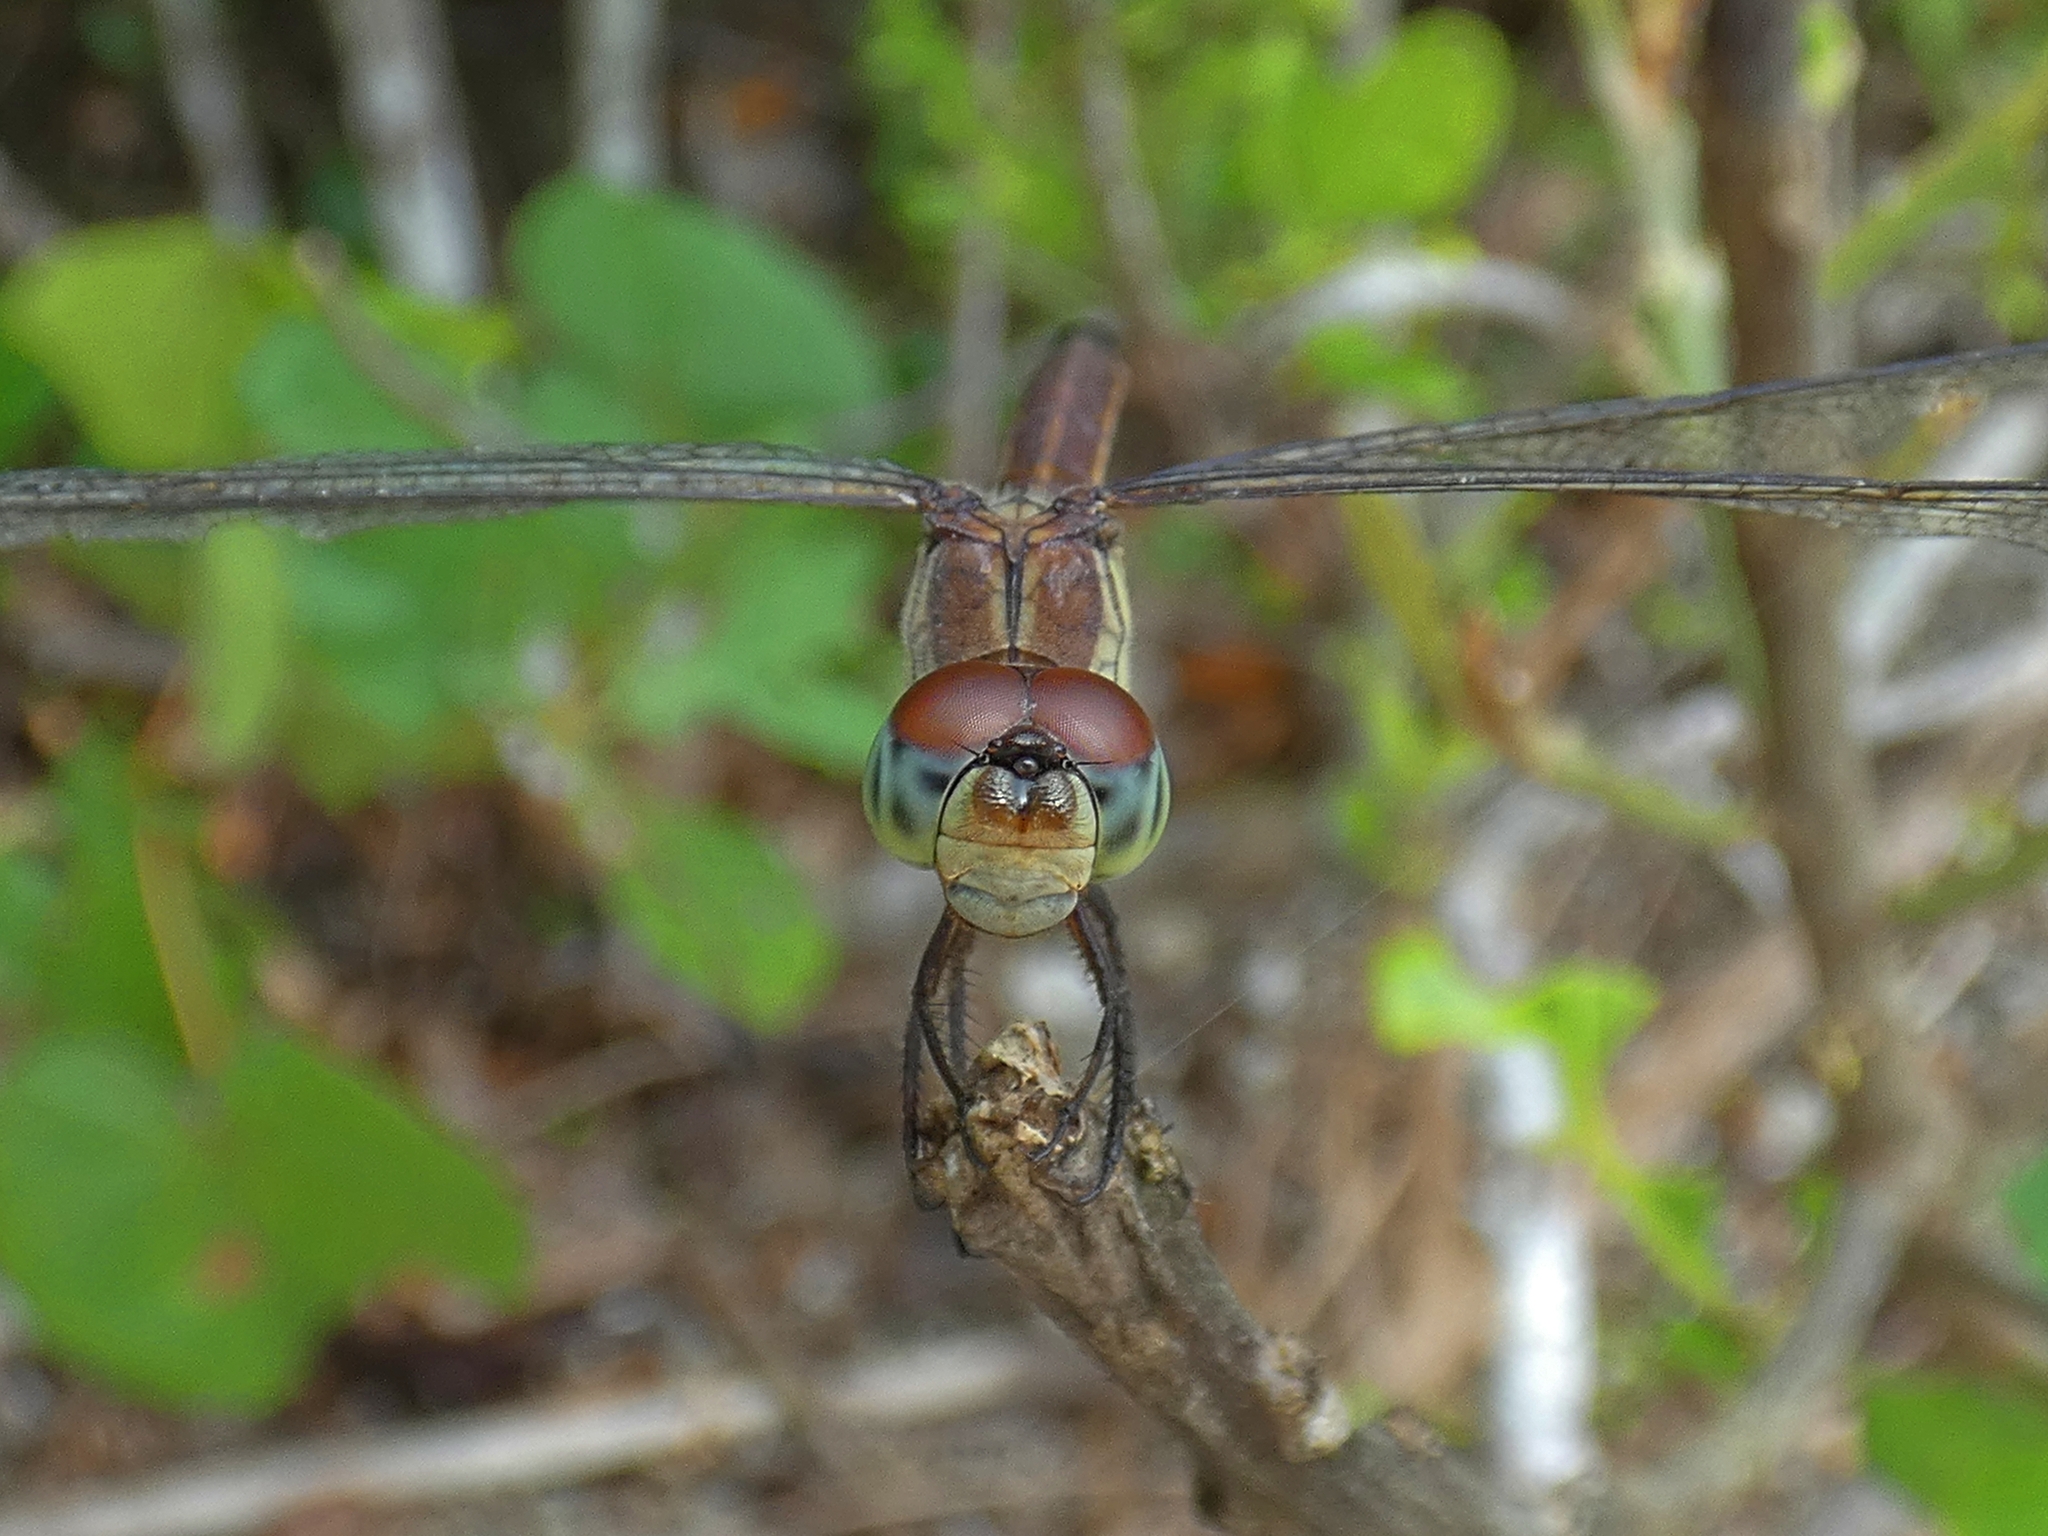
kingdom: Animalia
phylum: Arthropoda
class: Insecta
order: Odonata
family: Libellulidae
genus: Lathrecista
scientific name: Lathrecista asiatica
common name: Scarlet grenadier
